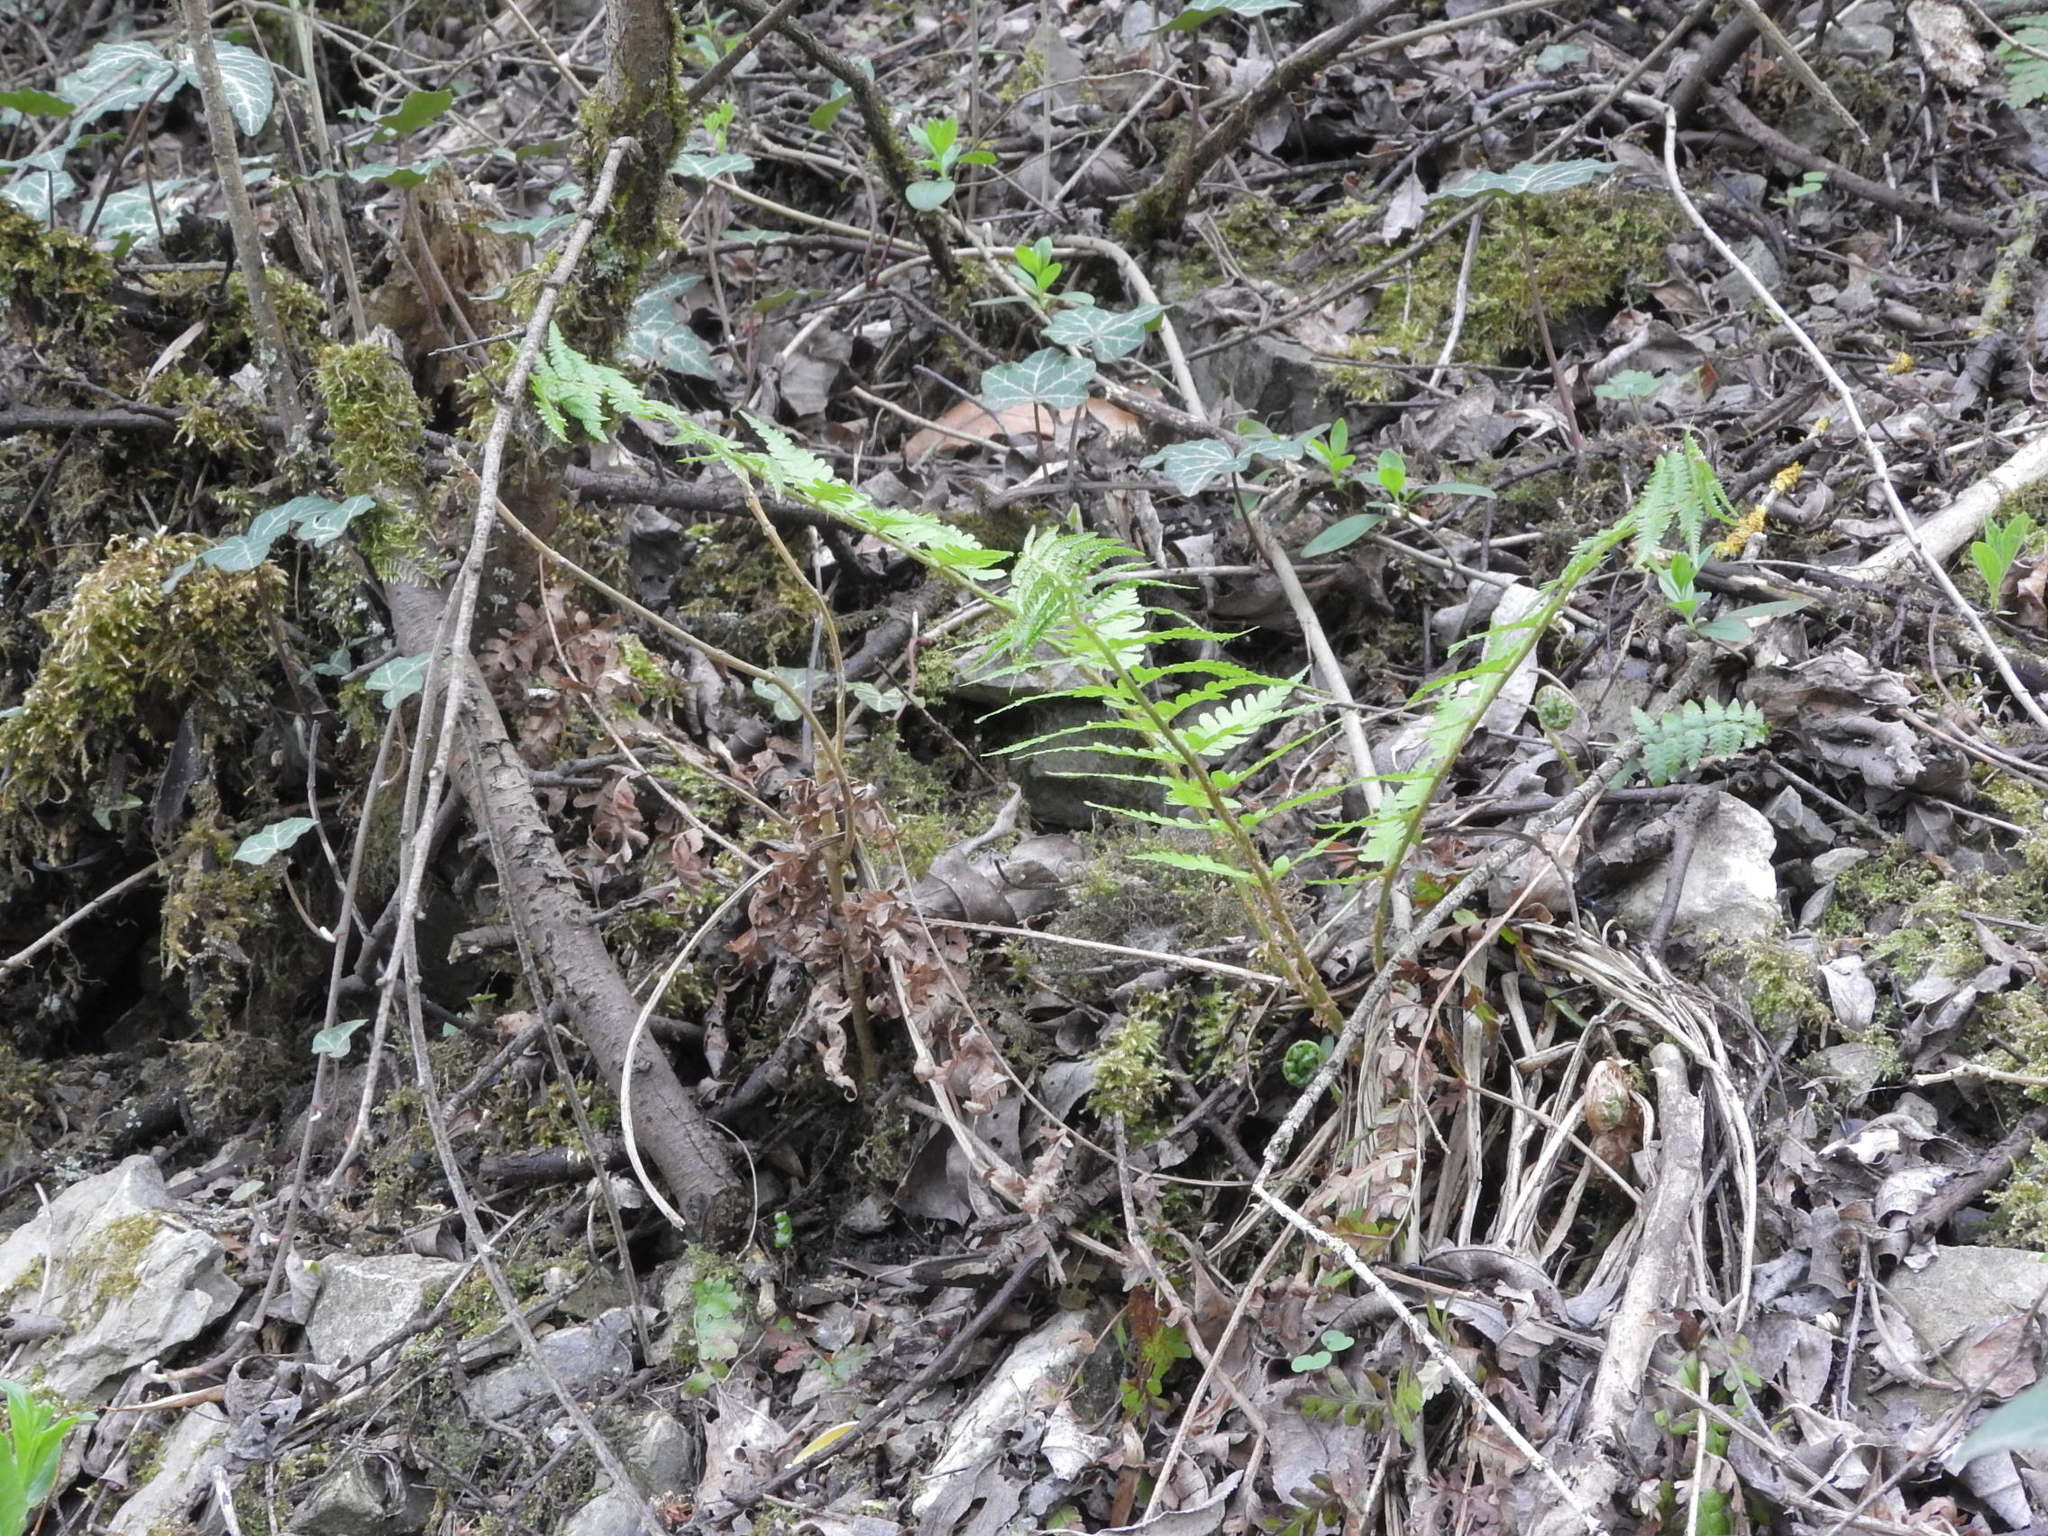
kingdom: Plantae
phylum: Tracheophyta
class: Polypodiopsida
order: Polypodiales
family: Dryopteridaceae
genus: Dryopteris
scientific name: Dryopteris filix-mas
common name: Male fern
